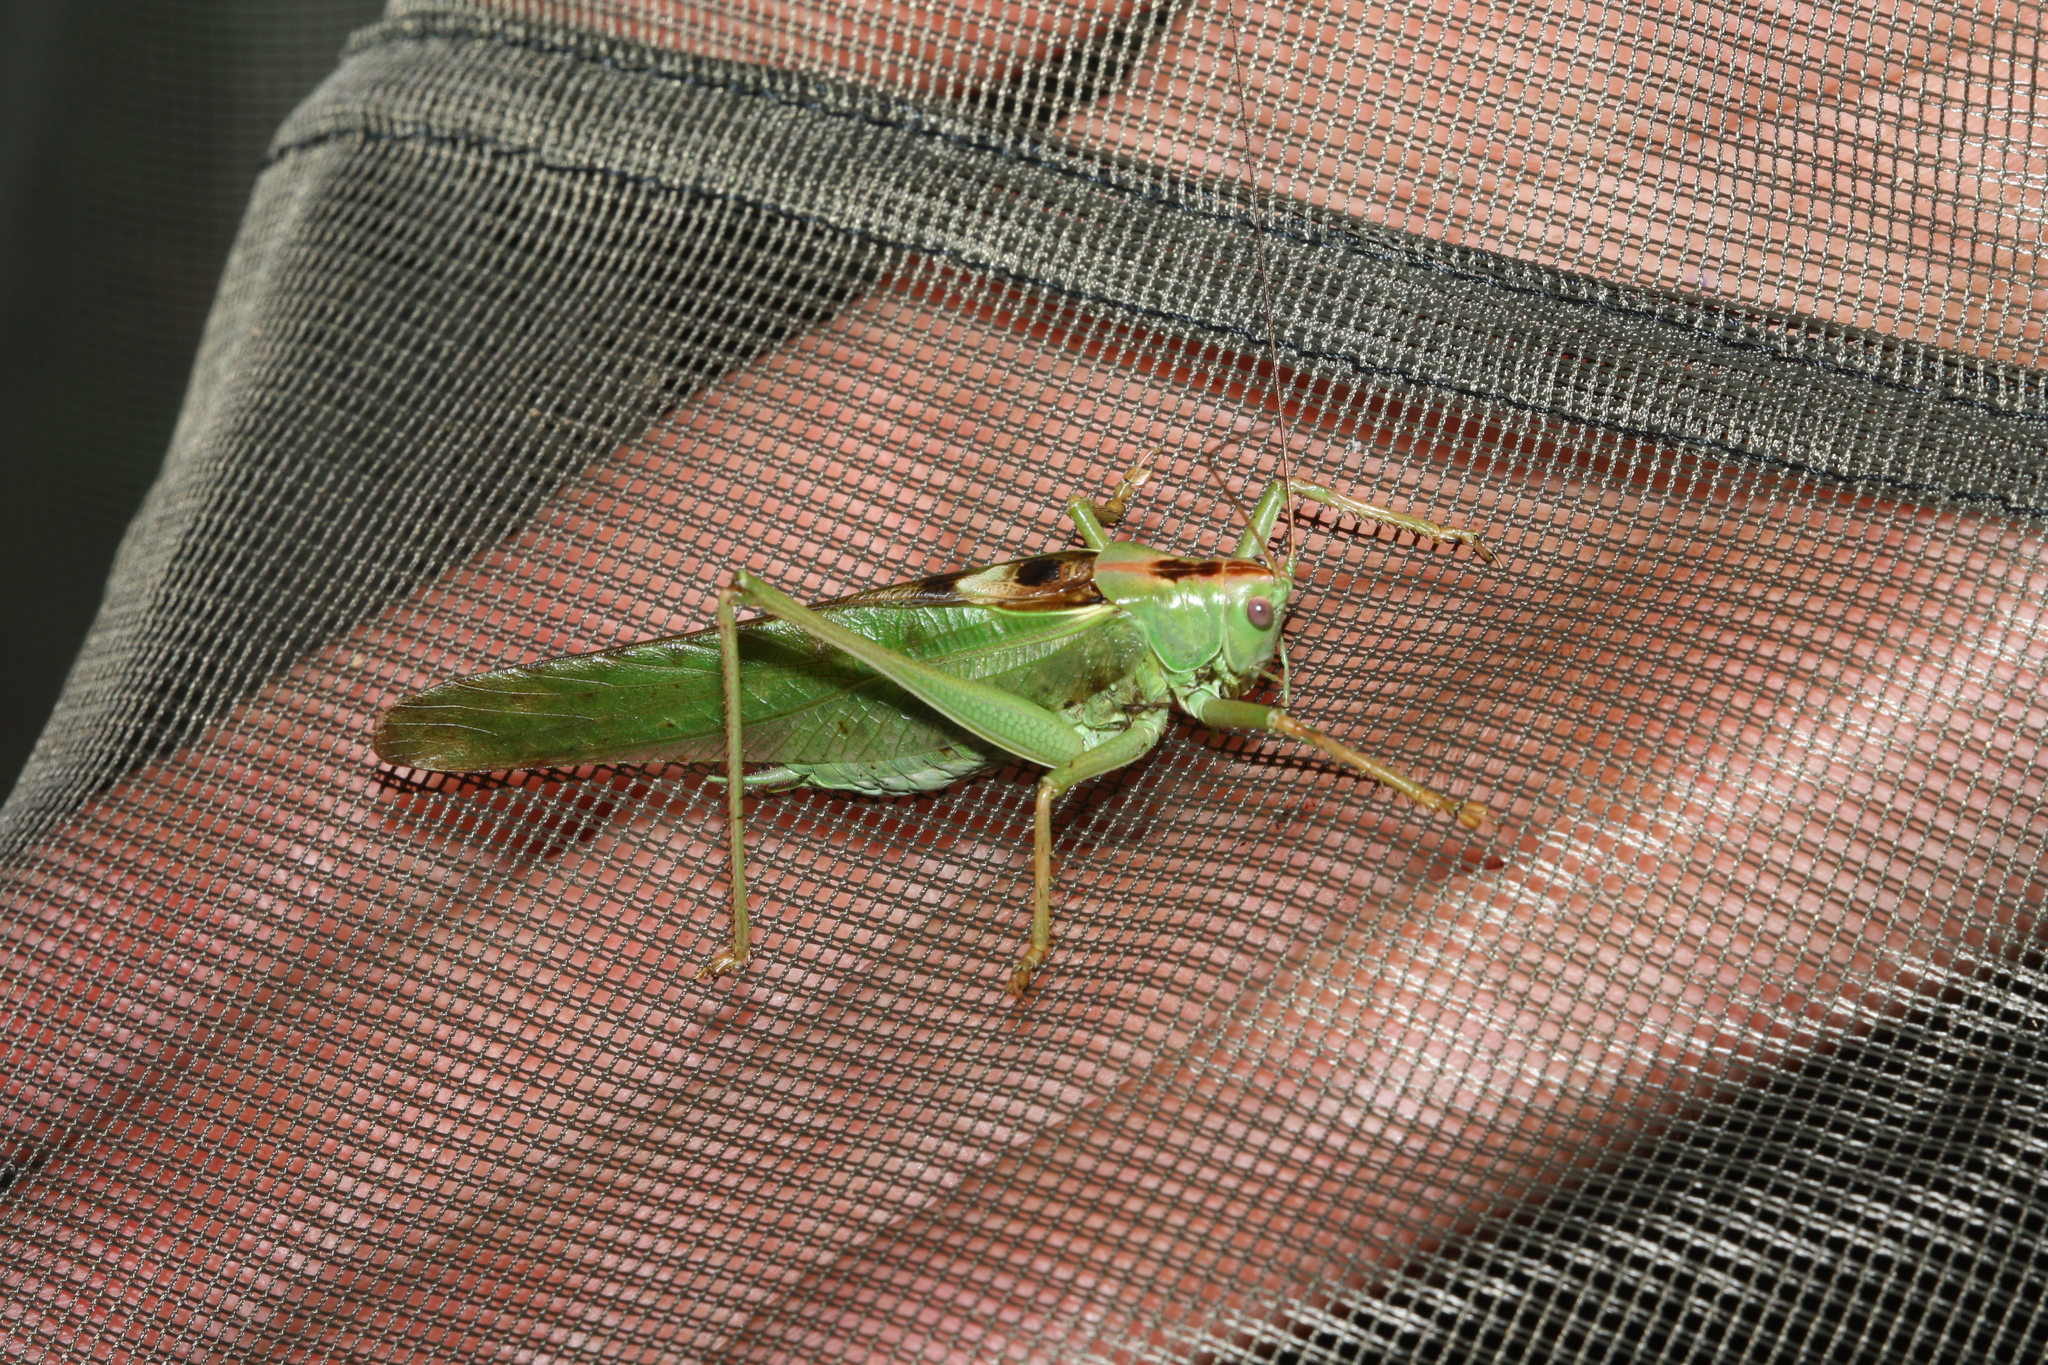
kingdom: Animalia
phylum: Arthropoda
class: Insecta
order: Orthoptera
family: Tettigoniidae
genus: Tettigonia
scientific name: Tettigonia viridissima
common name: Great green bush-cricket
